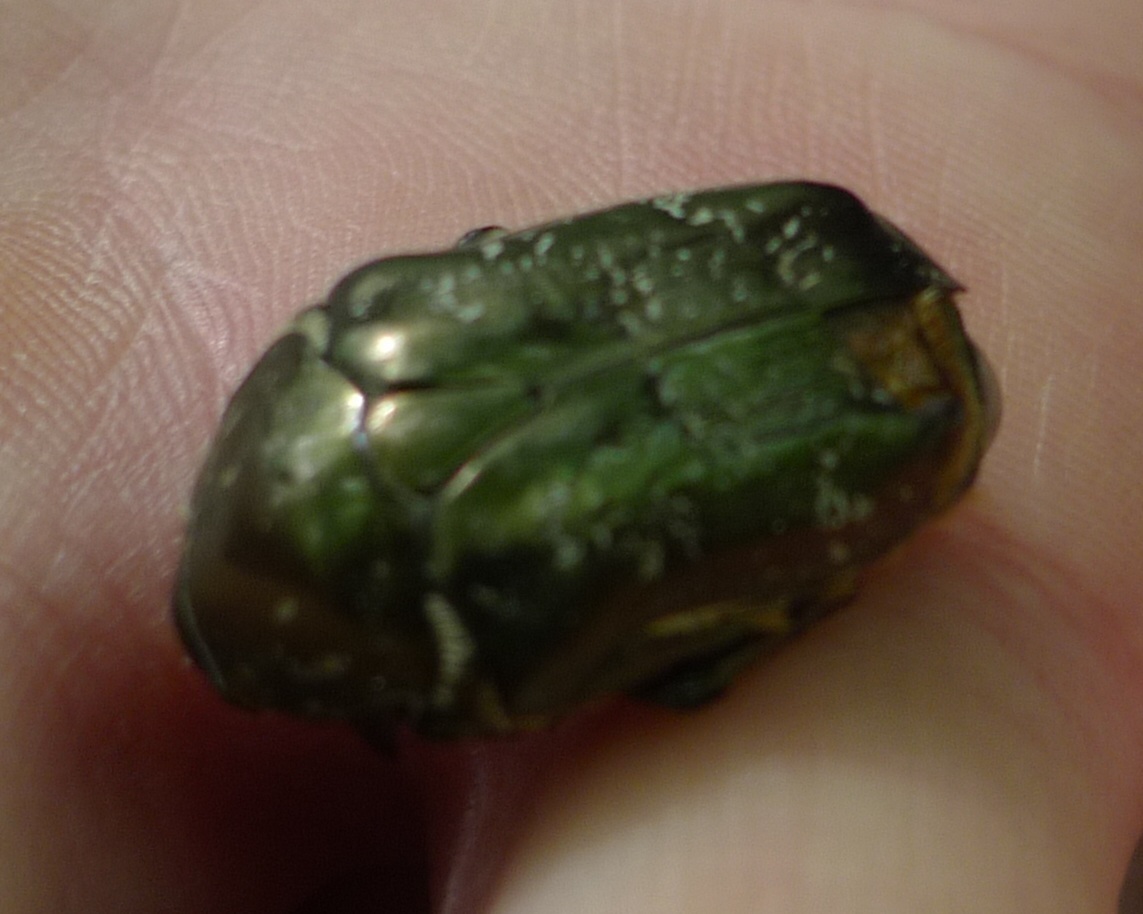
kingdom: Animalia
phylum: Arthropoda
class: Insecta
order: Coleoptera
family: Scarabaeidae
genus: Protaetia
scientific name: Protaetia marmorata
